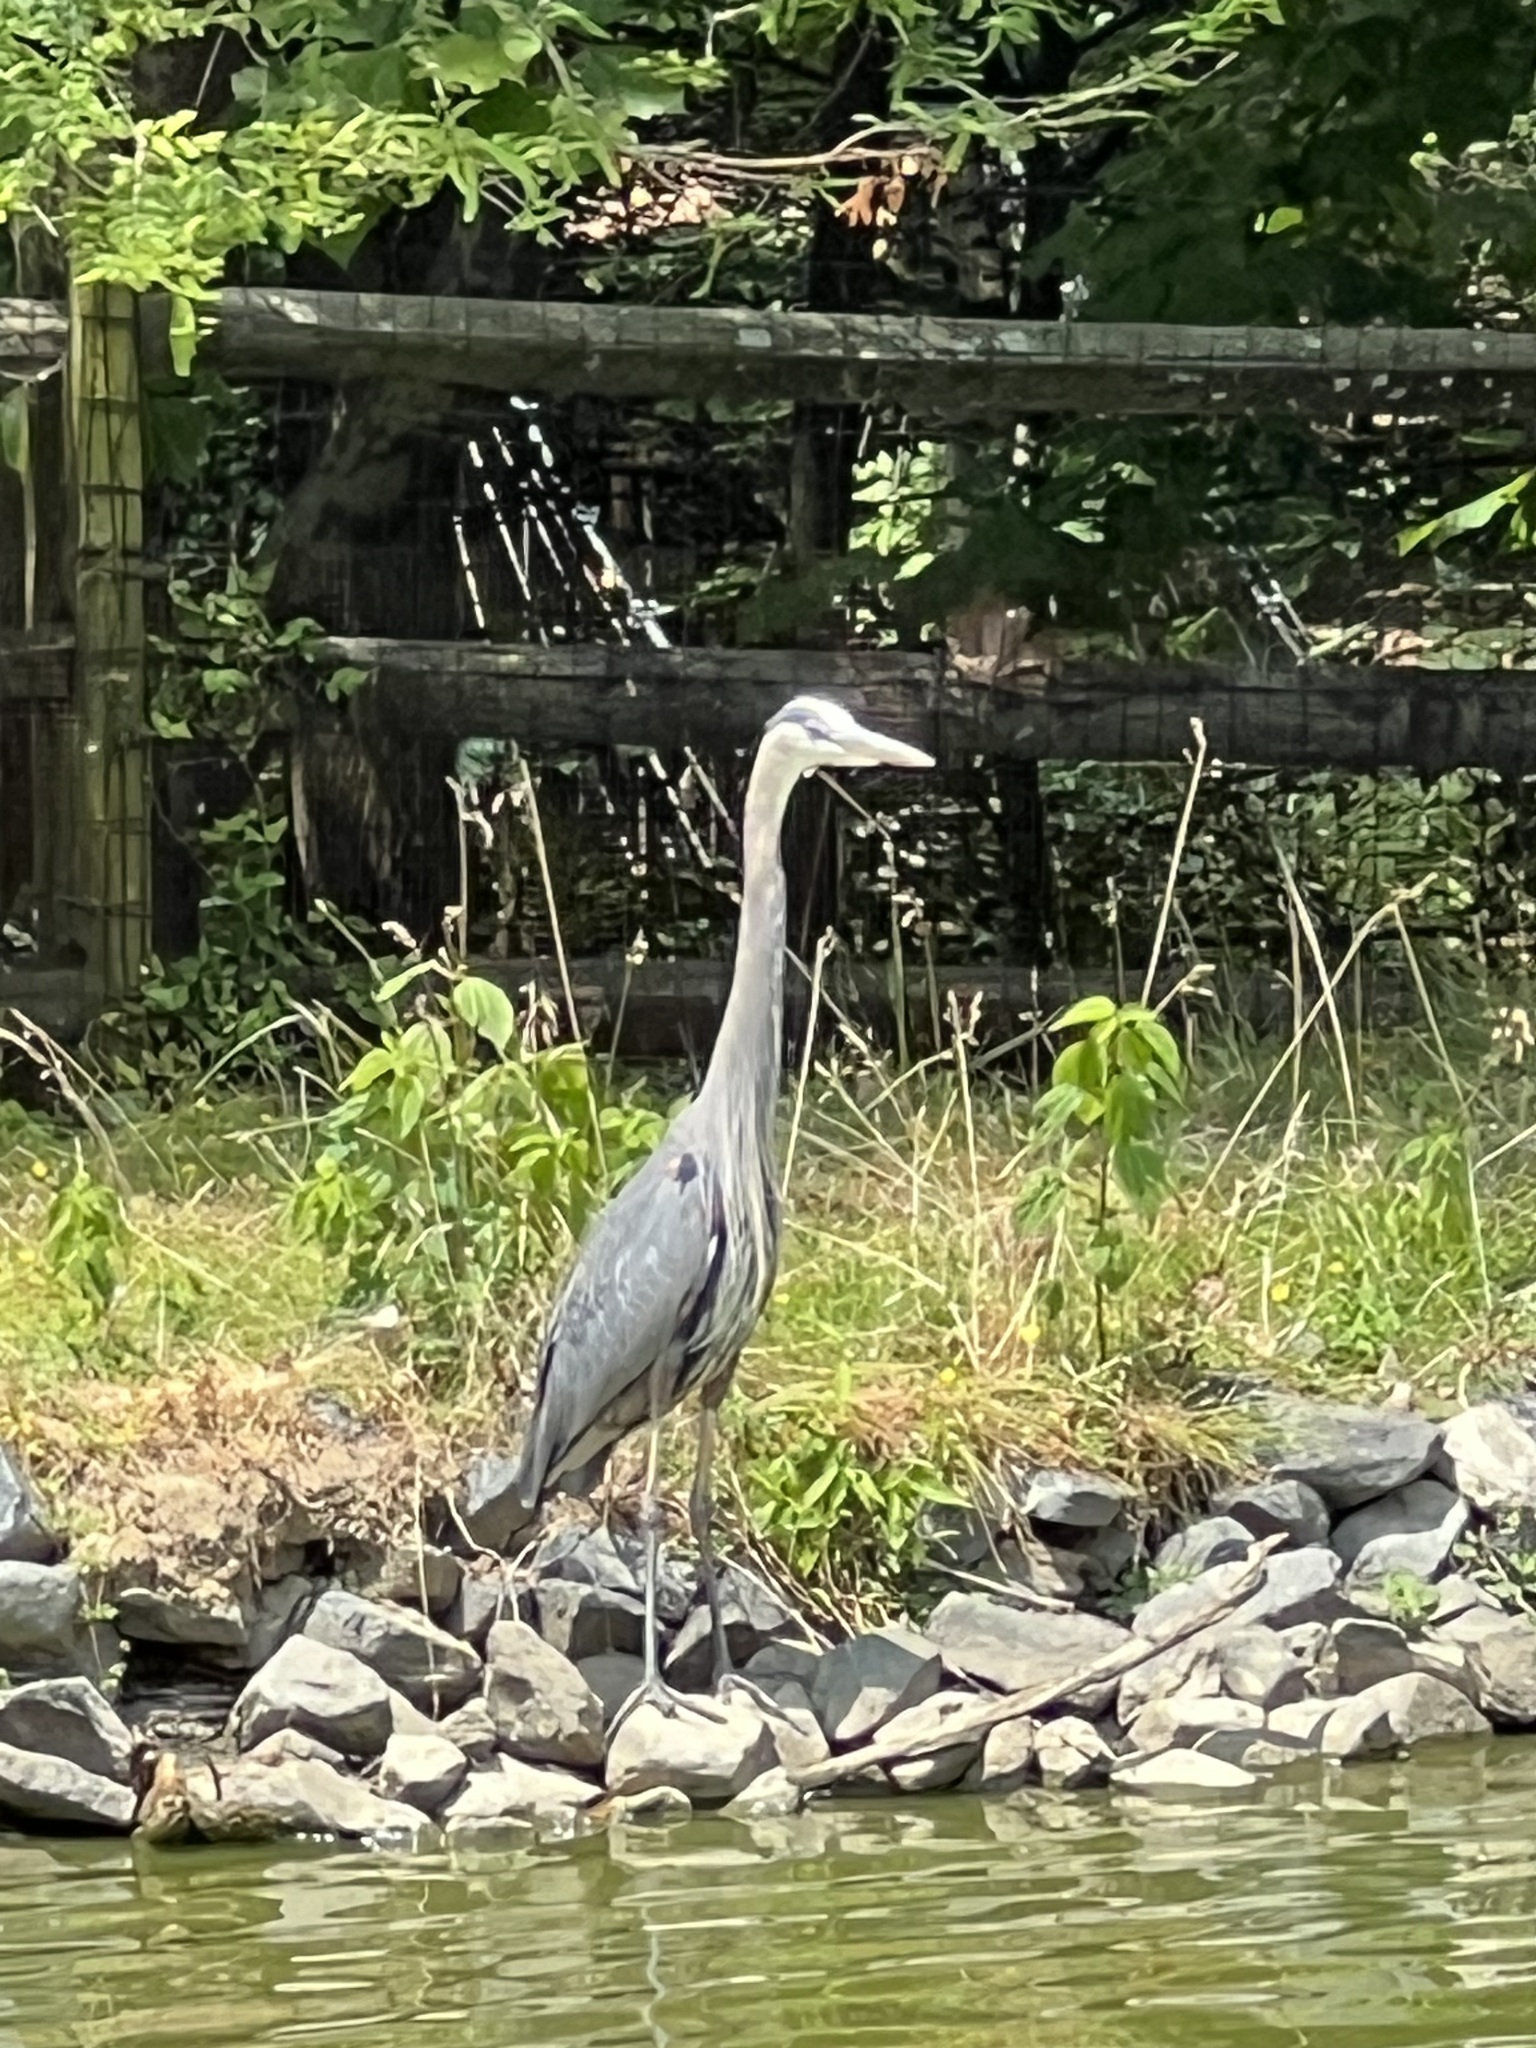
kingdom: Animalia
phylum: Chordata
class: Aves
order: Pelecaniformes
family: Ardeidae
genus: Ardea
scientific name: Ardea herodias
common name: Great blue heron
